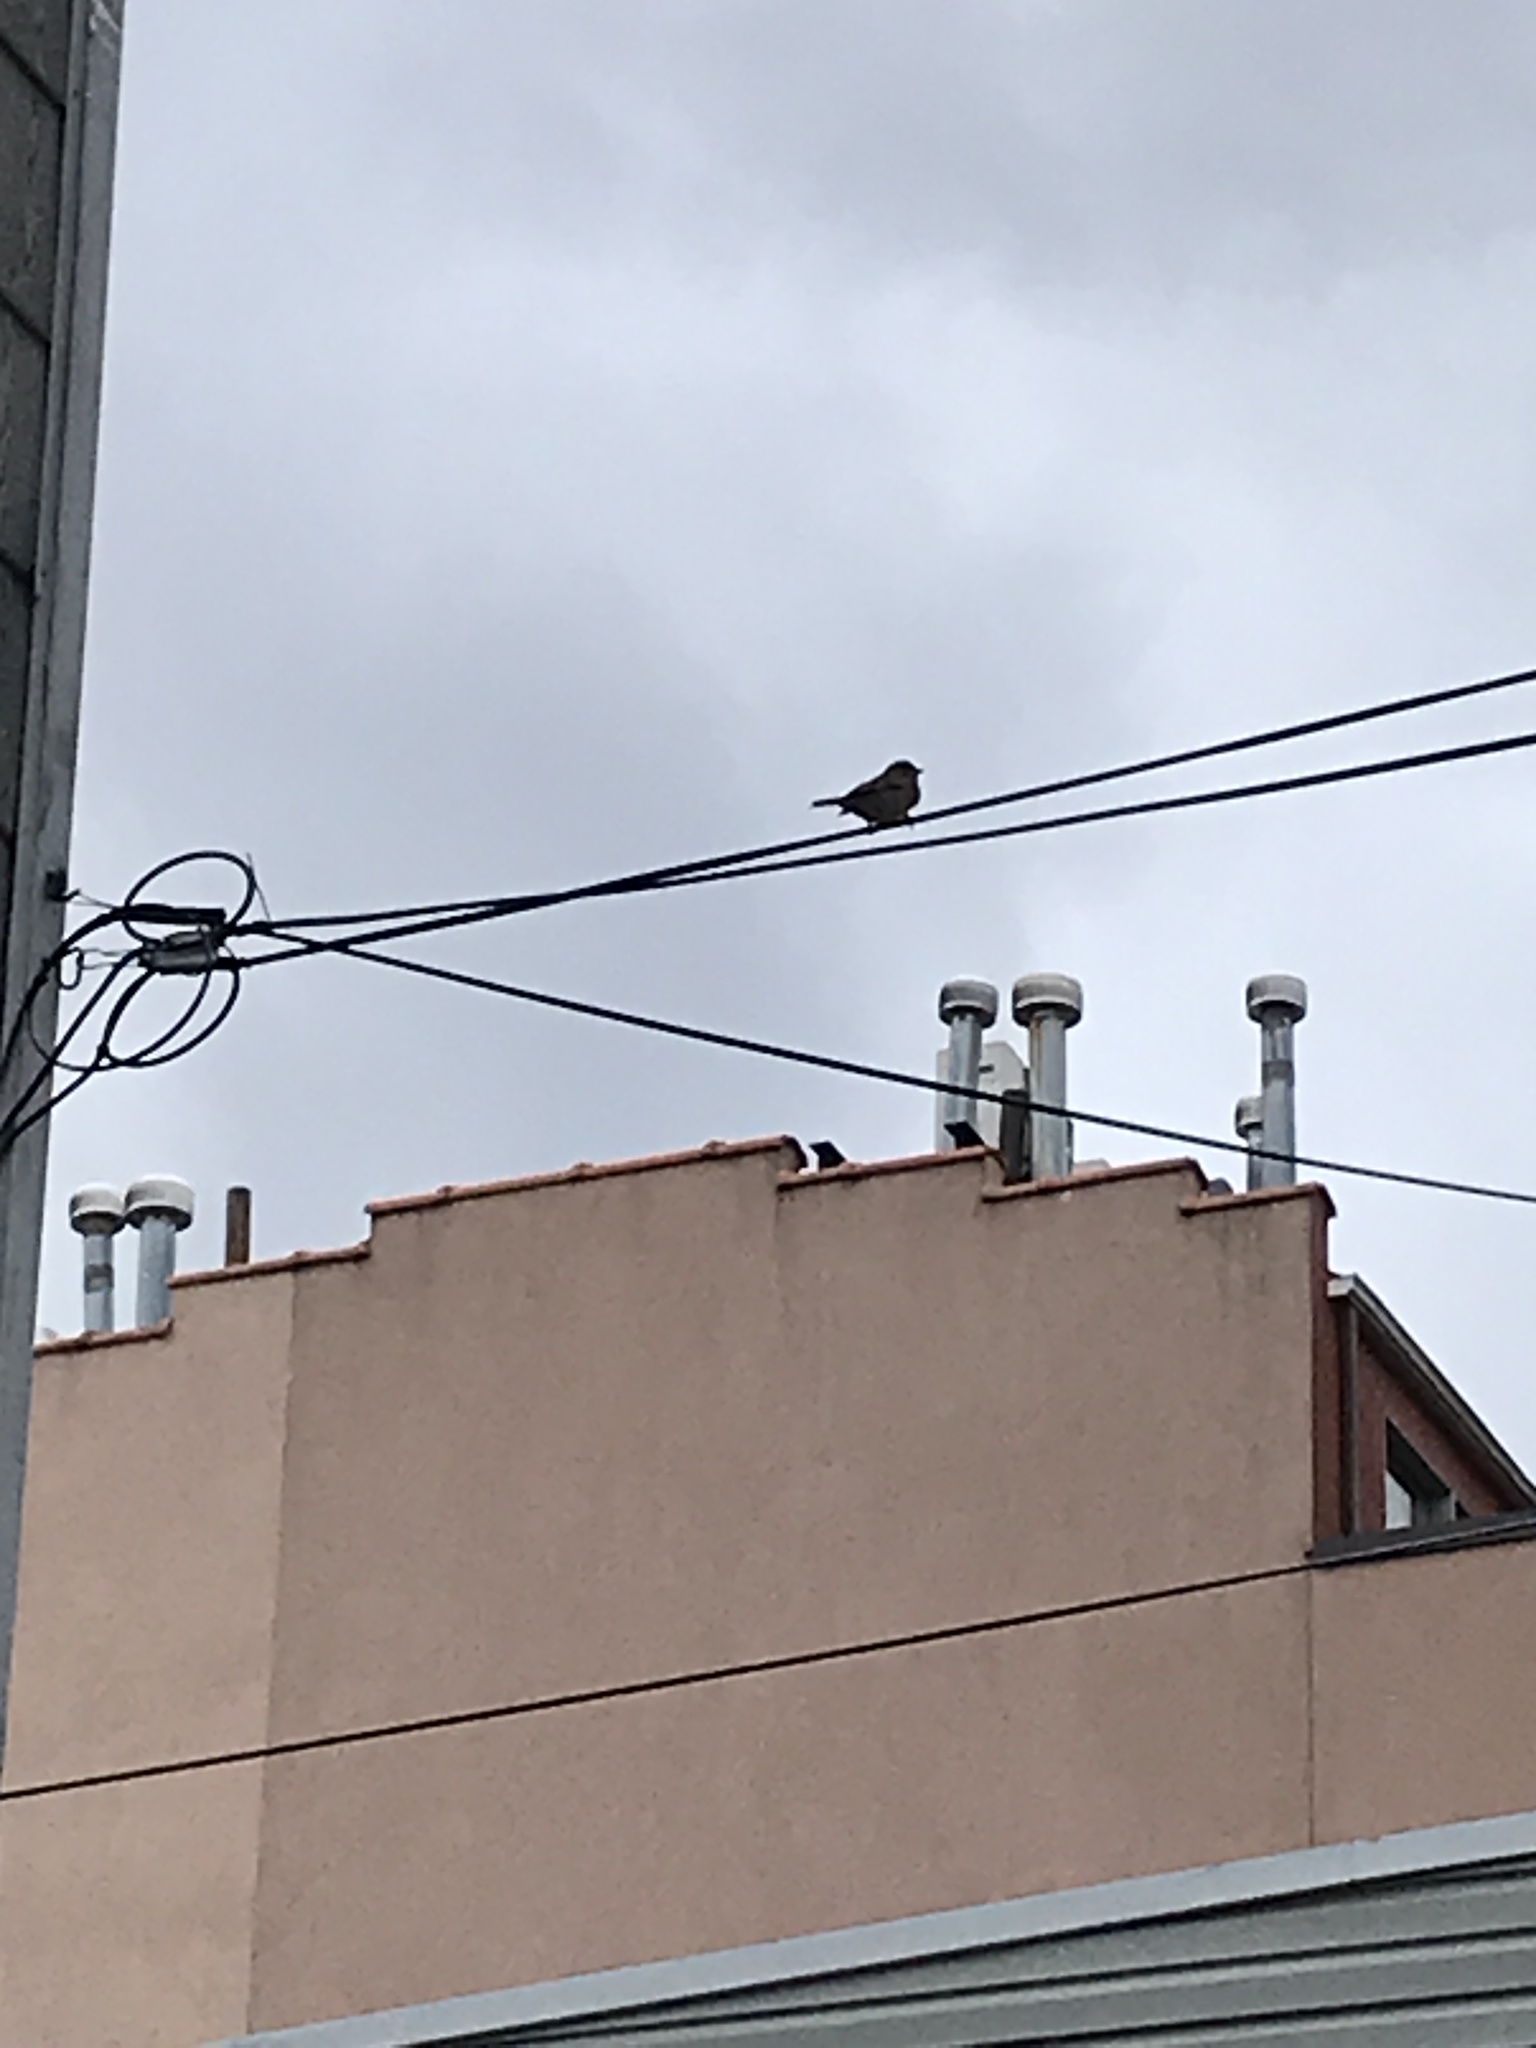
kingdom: Animalia
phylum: Chordata
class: Aves
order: Passeriformes
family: Passeridae
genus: Passer
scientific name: Passer domesticus
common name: House sparrow
